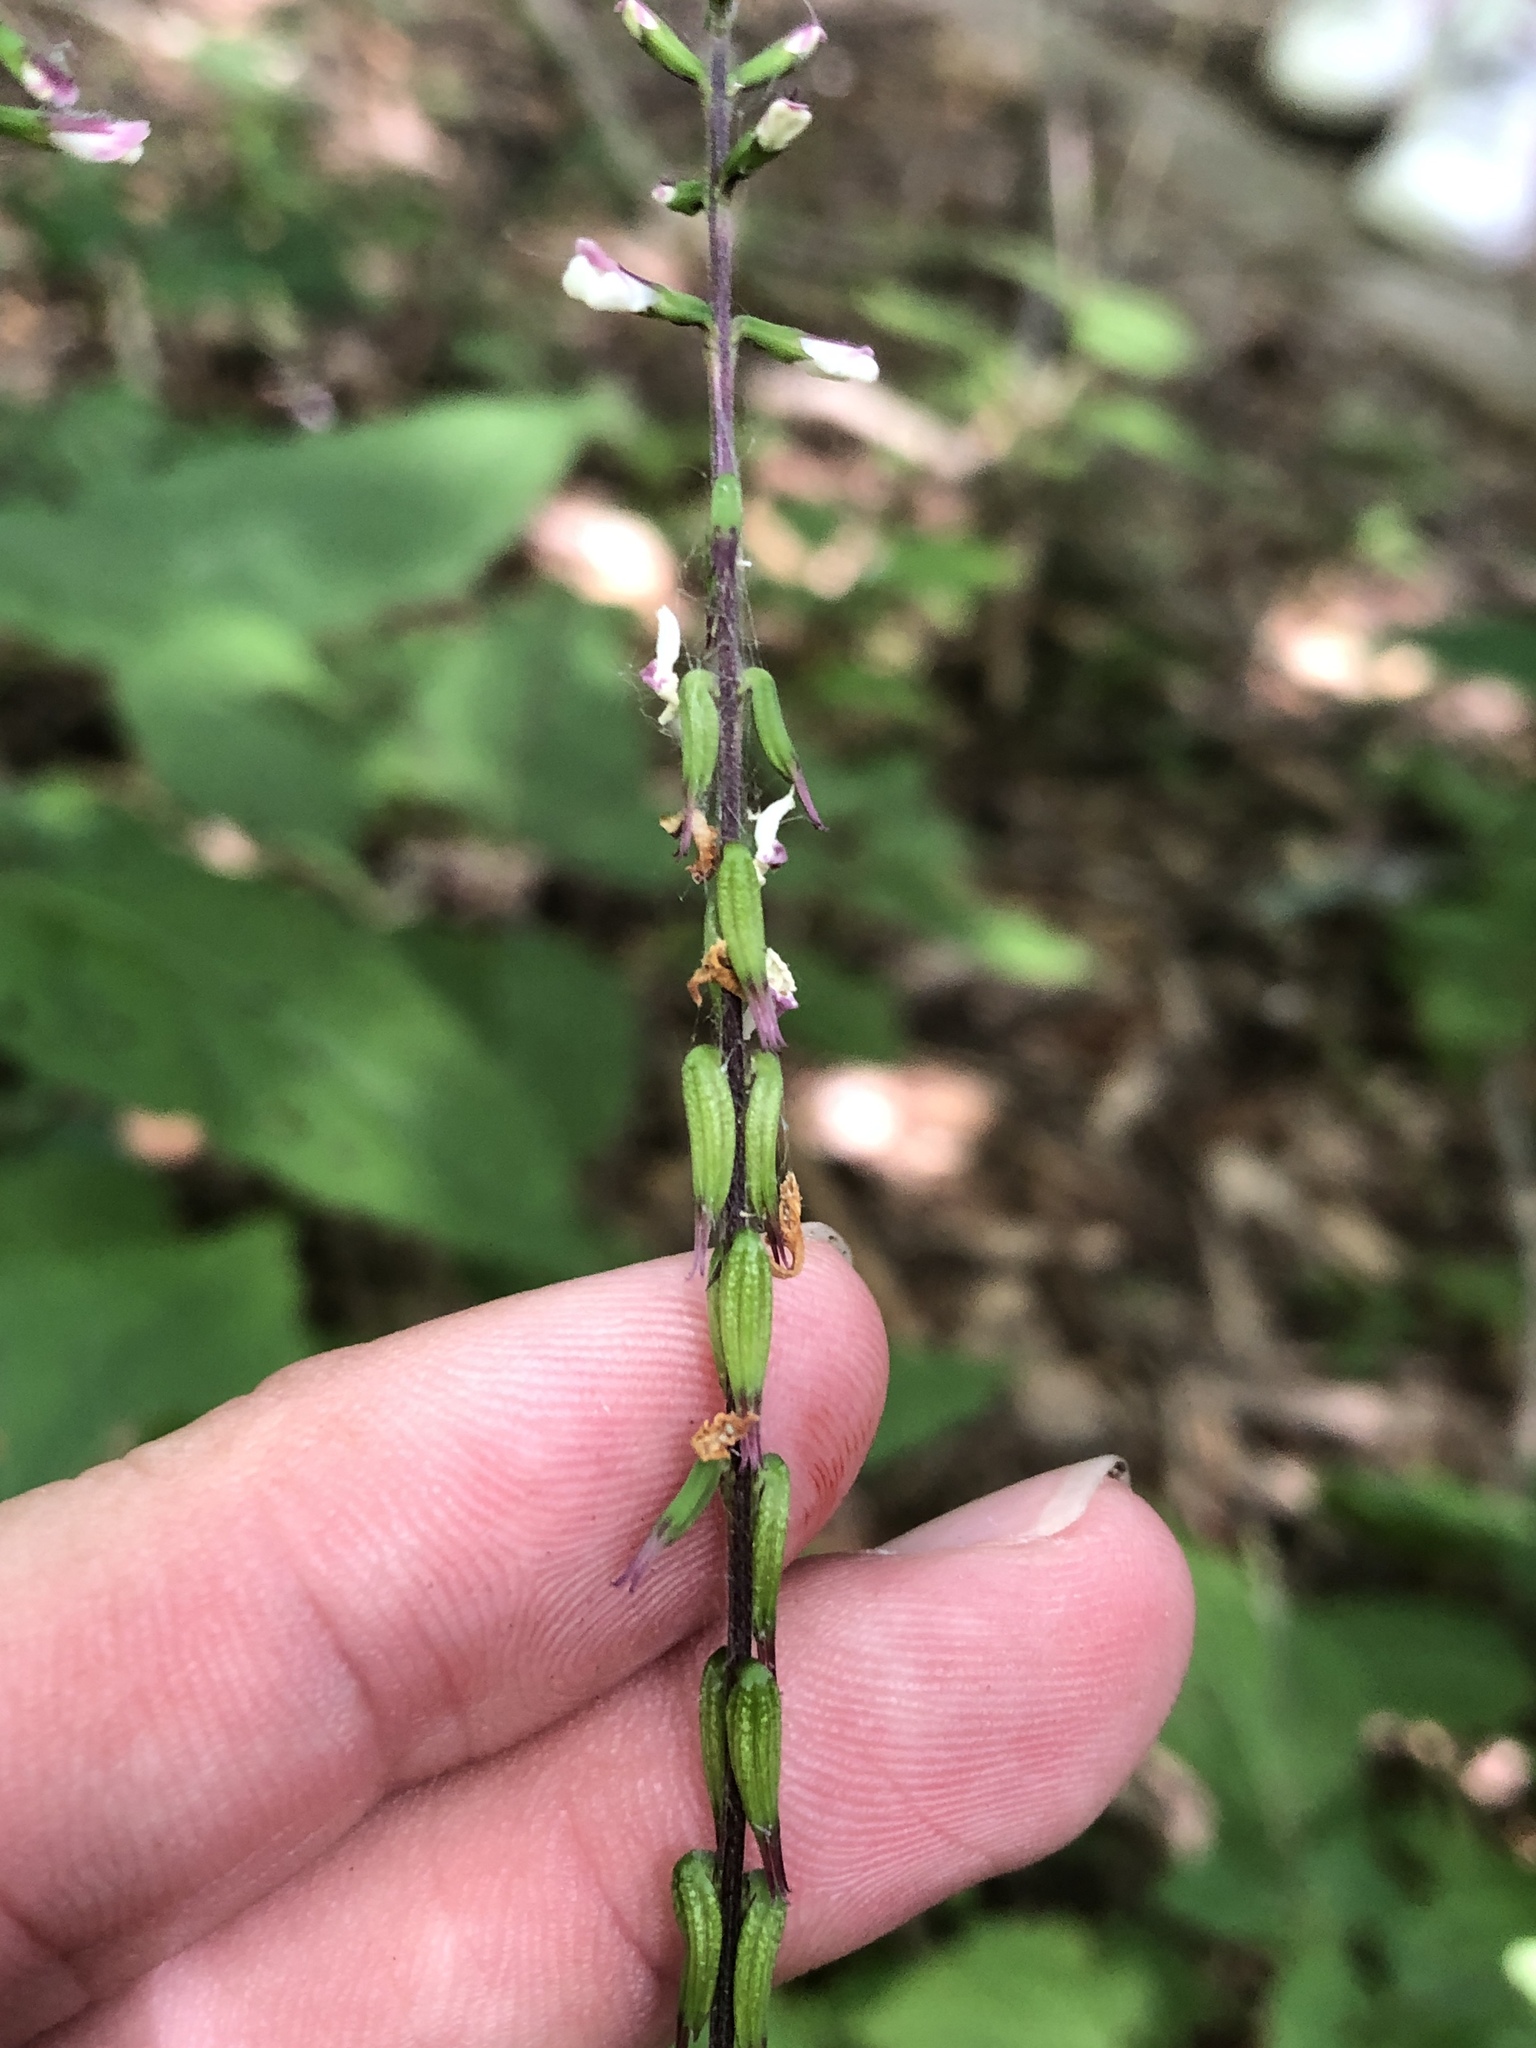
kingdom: Plantae
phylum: Tracheophyta
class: Magnoliopsida
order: Lamiales
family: Phrymaceae
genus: Phryma
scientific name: Phryma leptostachya
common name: American lopseed
